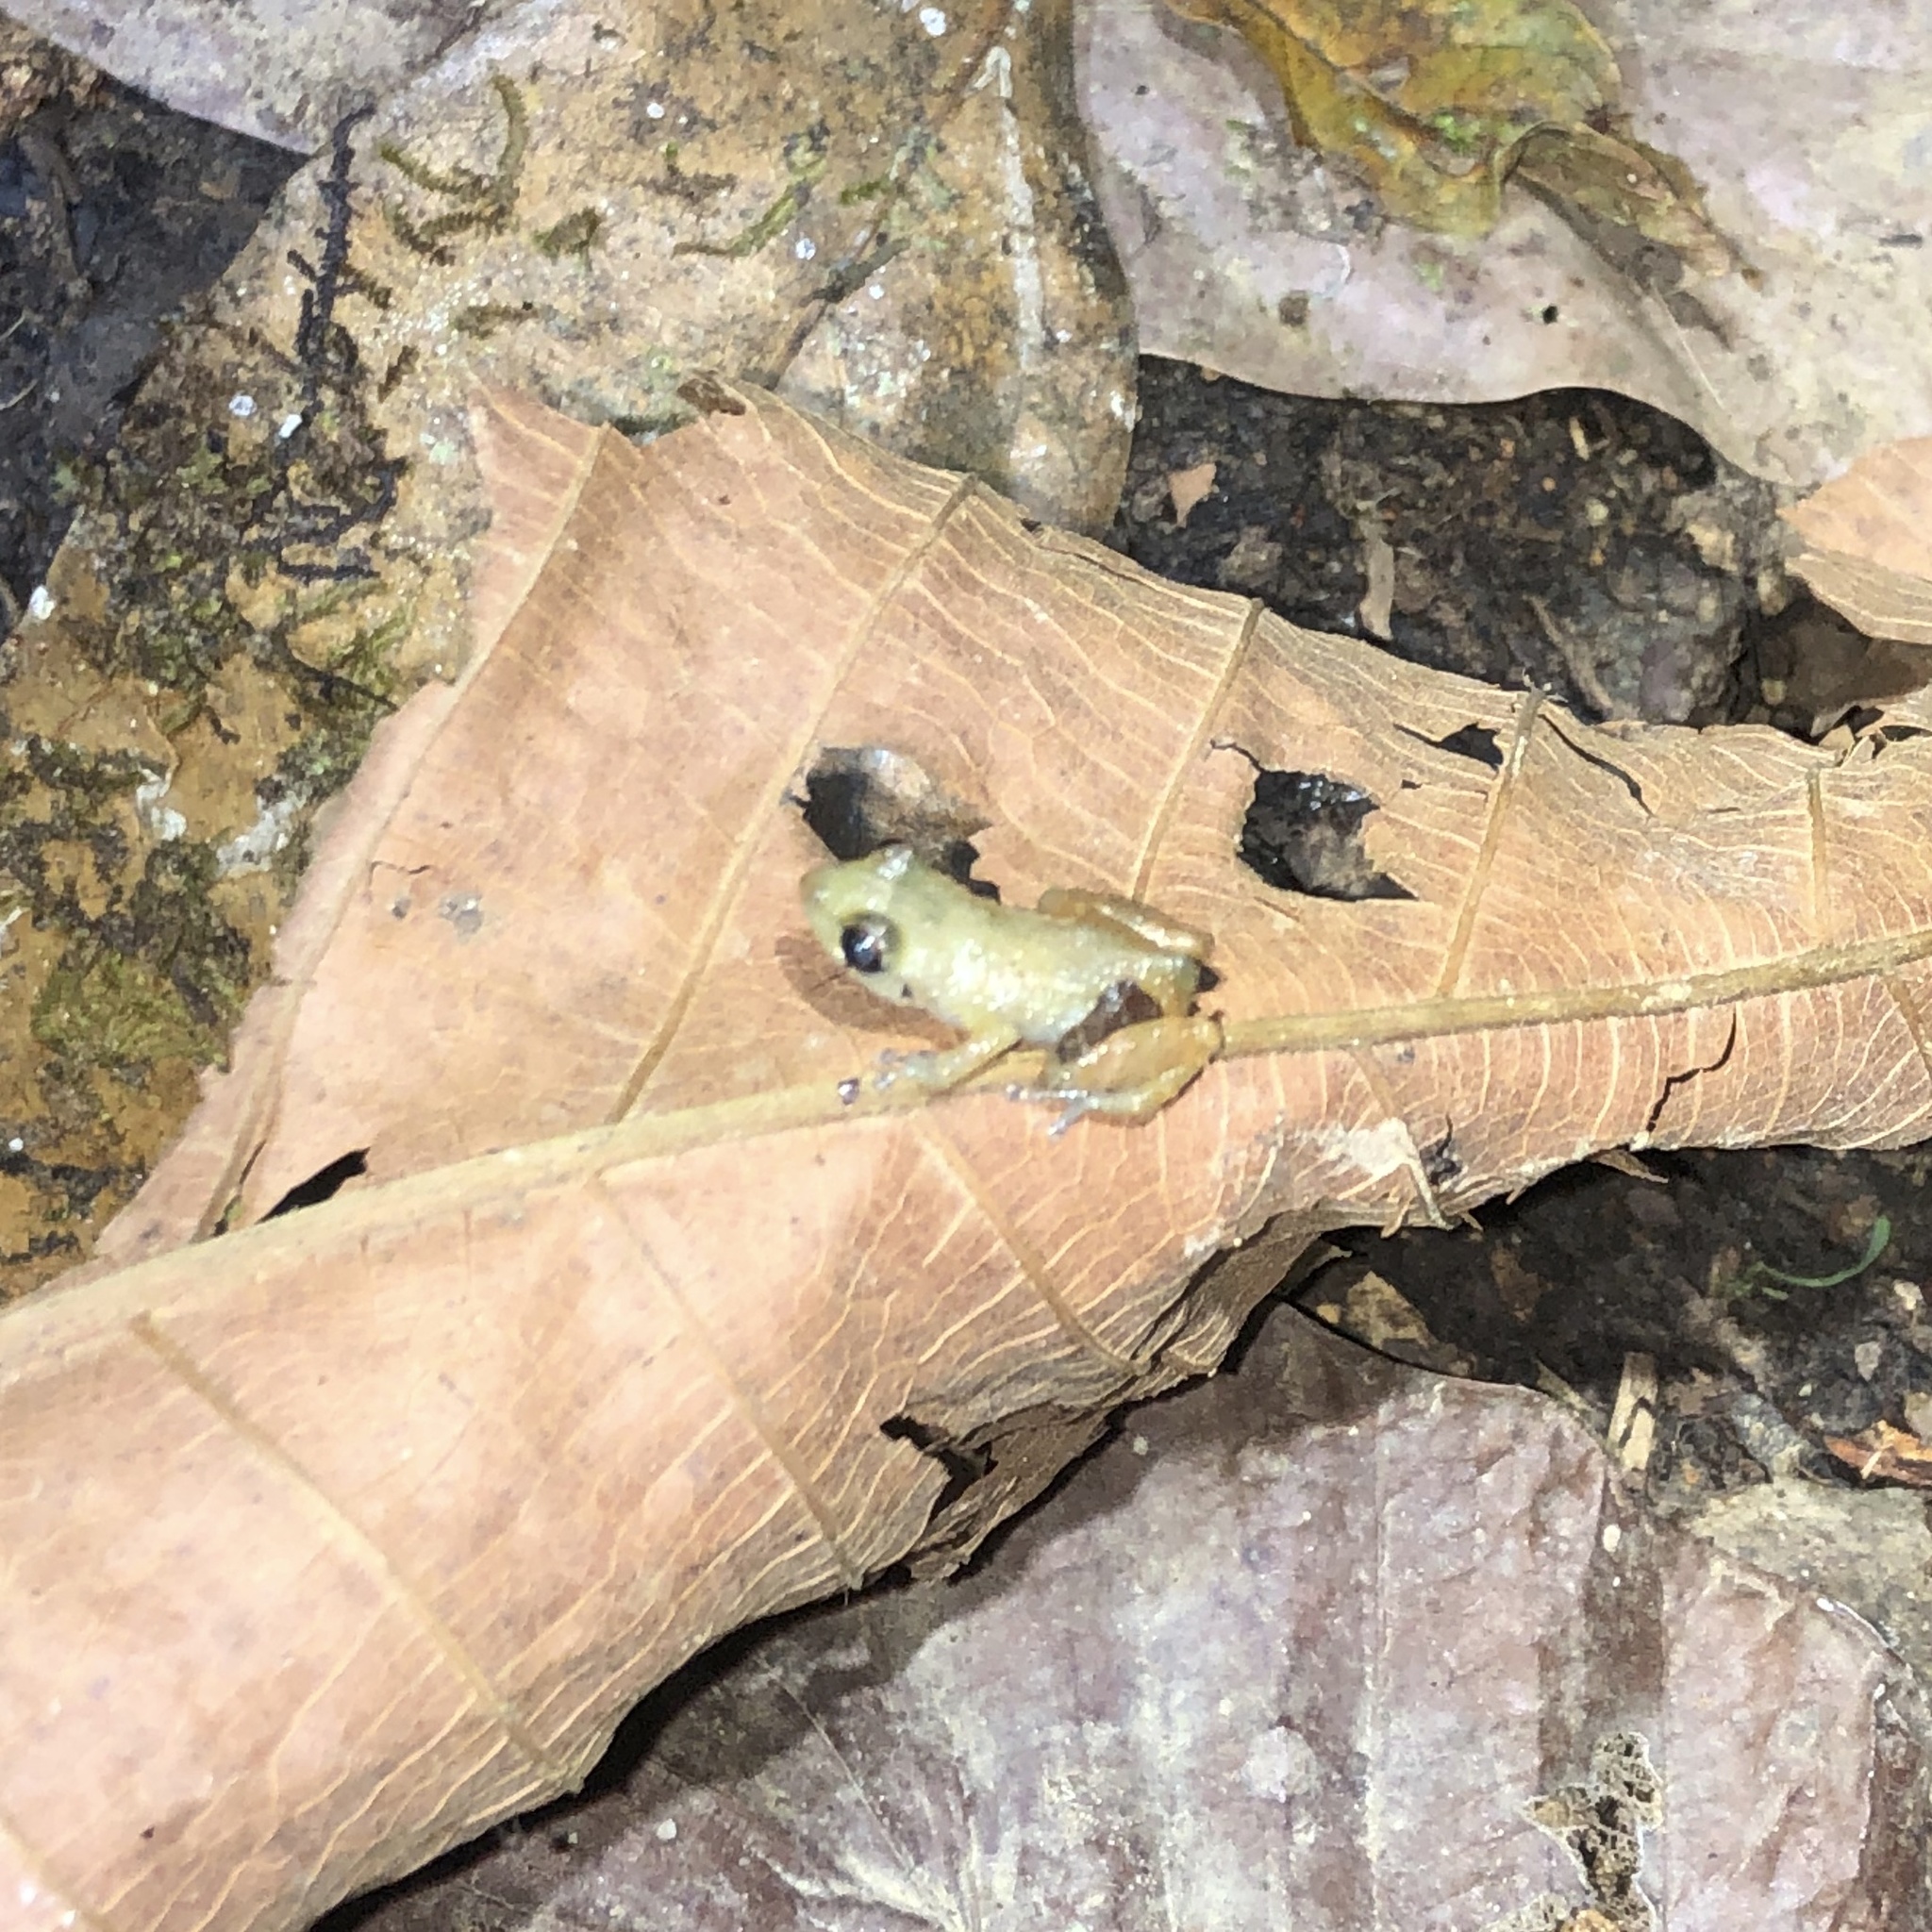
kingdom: Animalia
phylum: Chordata
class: Amphibia
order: Anura
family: Eleutherodactylidae
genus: Diasporus
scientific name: Diasporus vocator
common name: Agua buena dink frog
